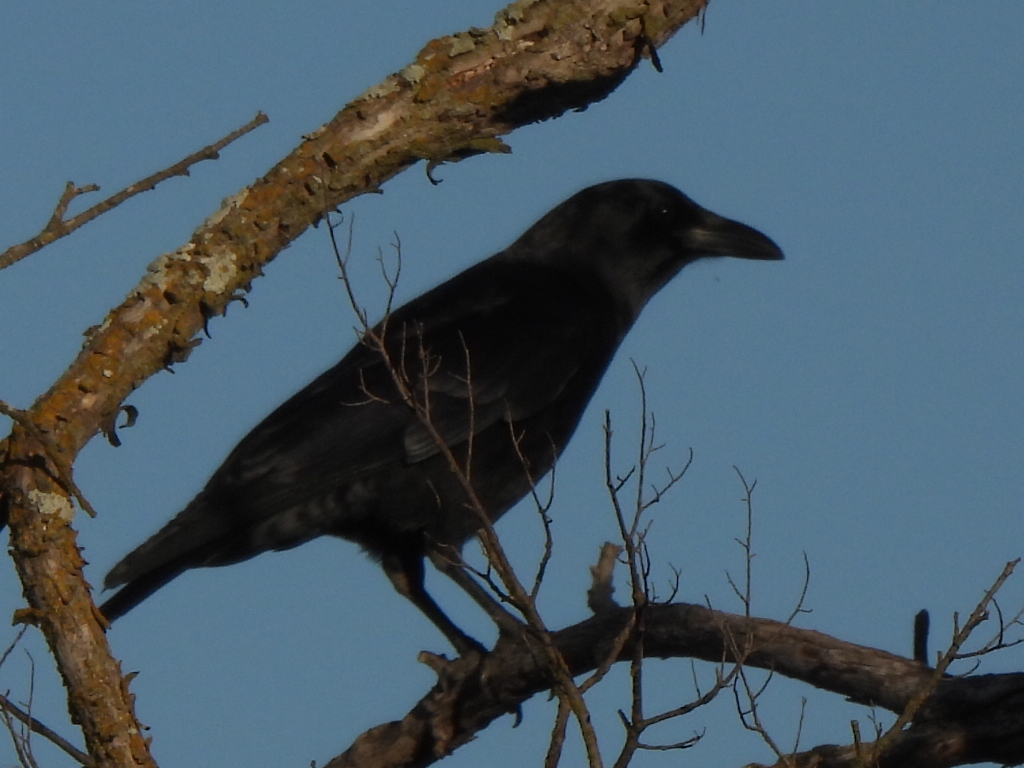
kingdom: Animalia
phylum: Chordata
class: Aves
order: Passeriformes
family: Corvidae
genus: Corvus
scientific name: Corvus brachyrhynchos
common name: American crow
